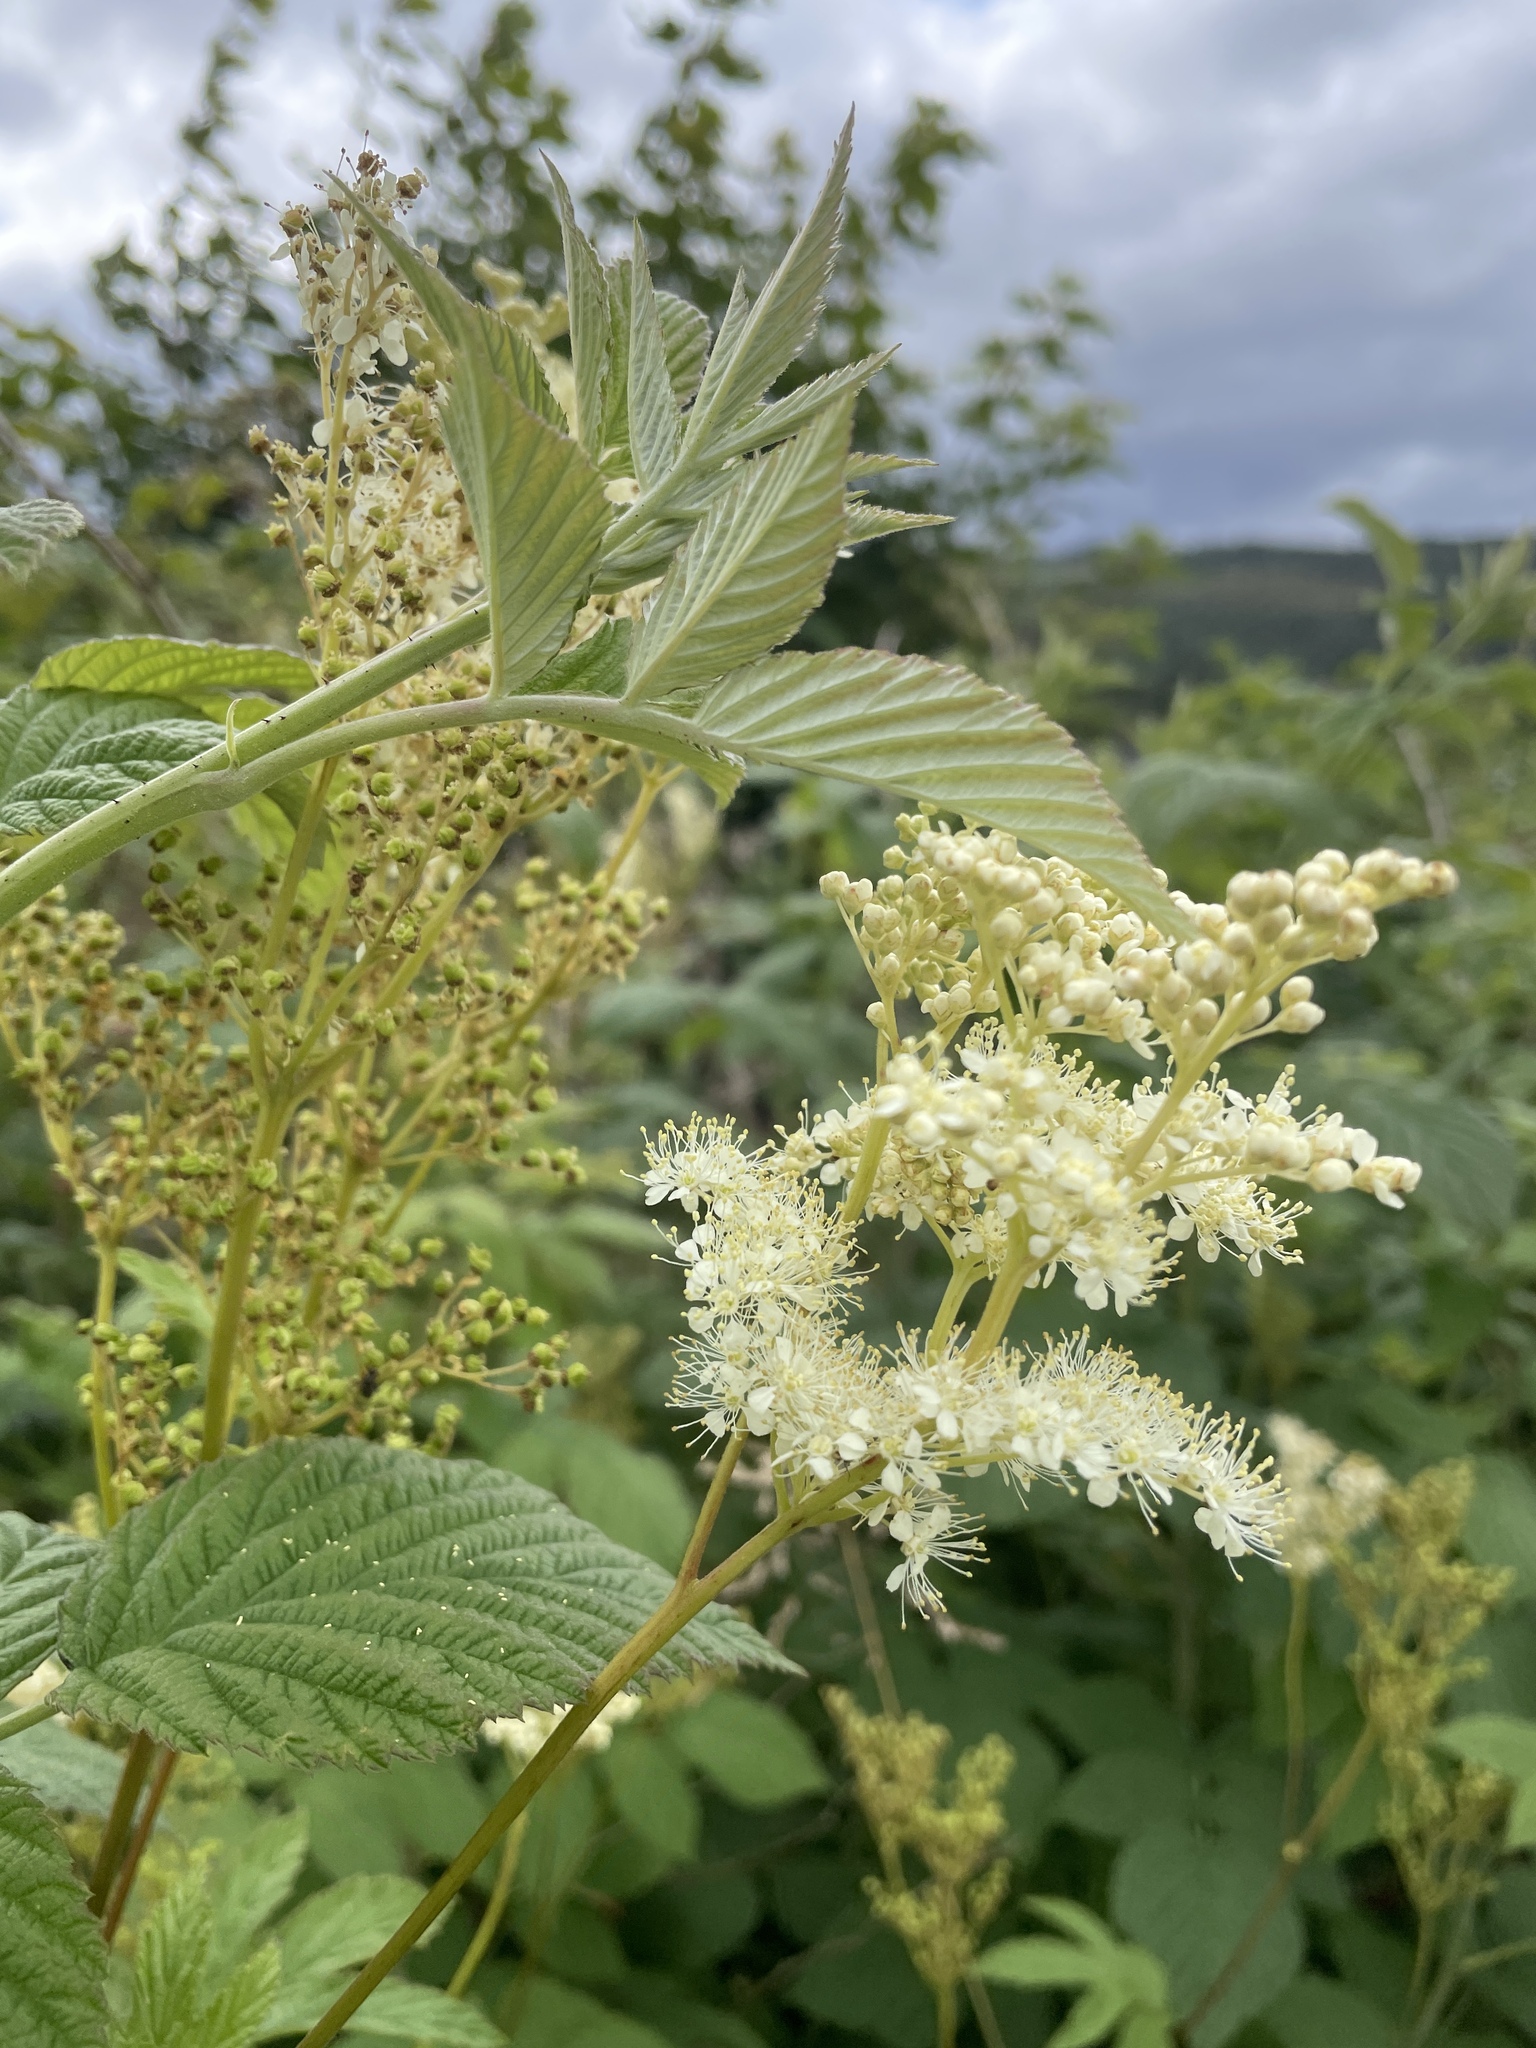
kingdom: Plantae
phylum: Tracheophyta
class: Magnoliopsida
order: Rosales
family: Rosaceae
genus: Filipendula
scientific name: Filipendula ulmaria
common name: Meadowsweet
